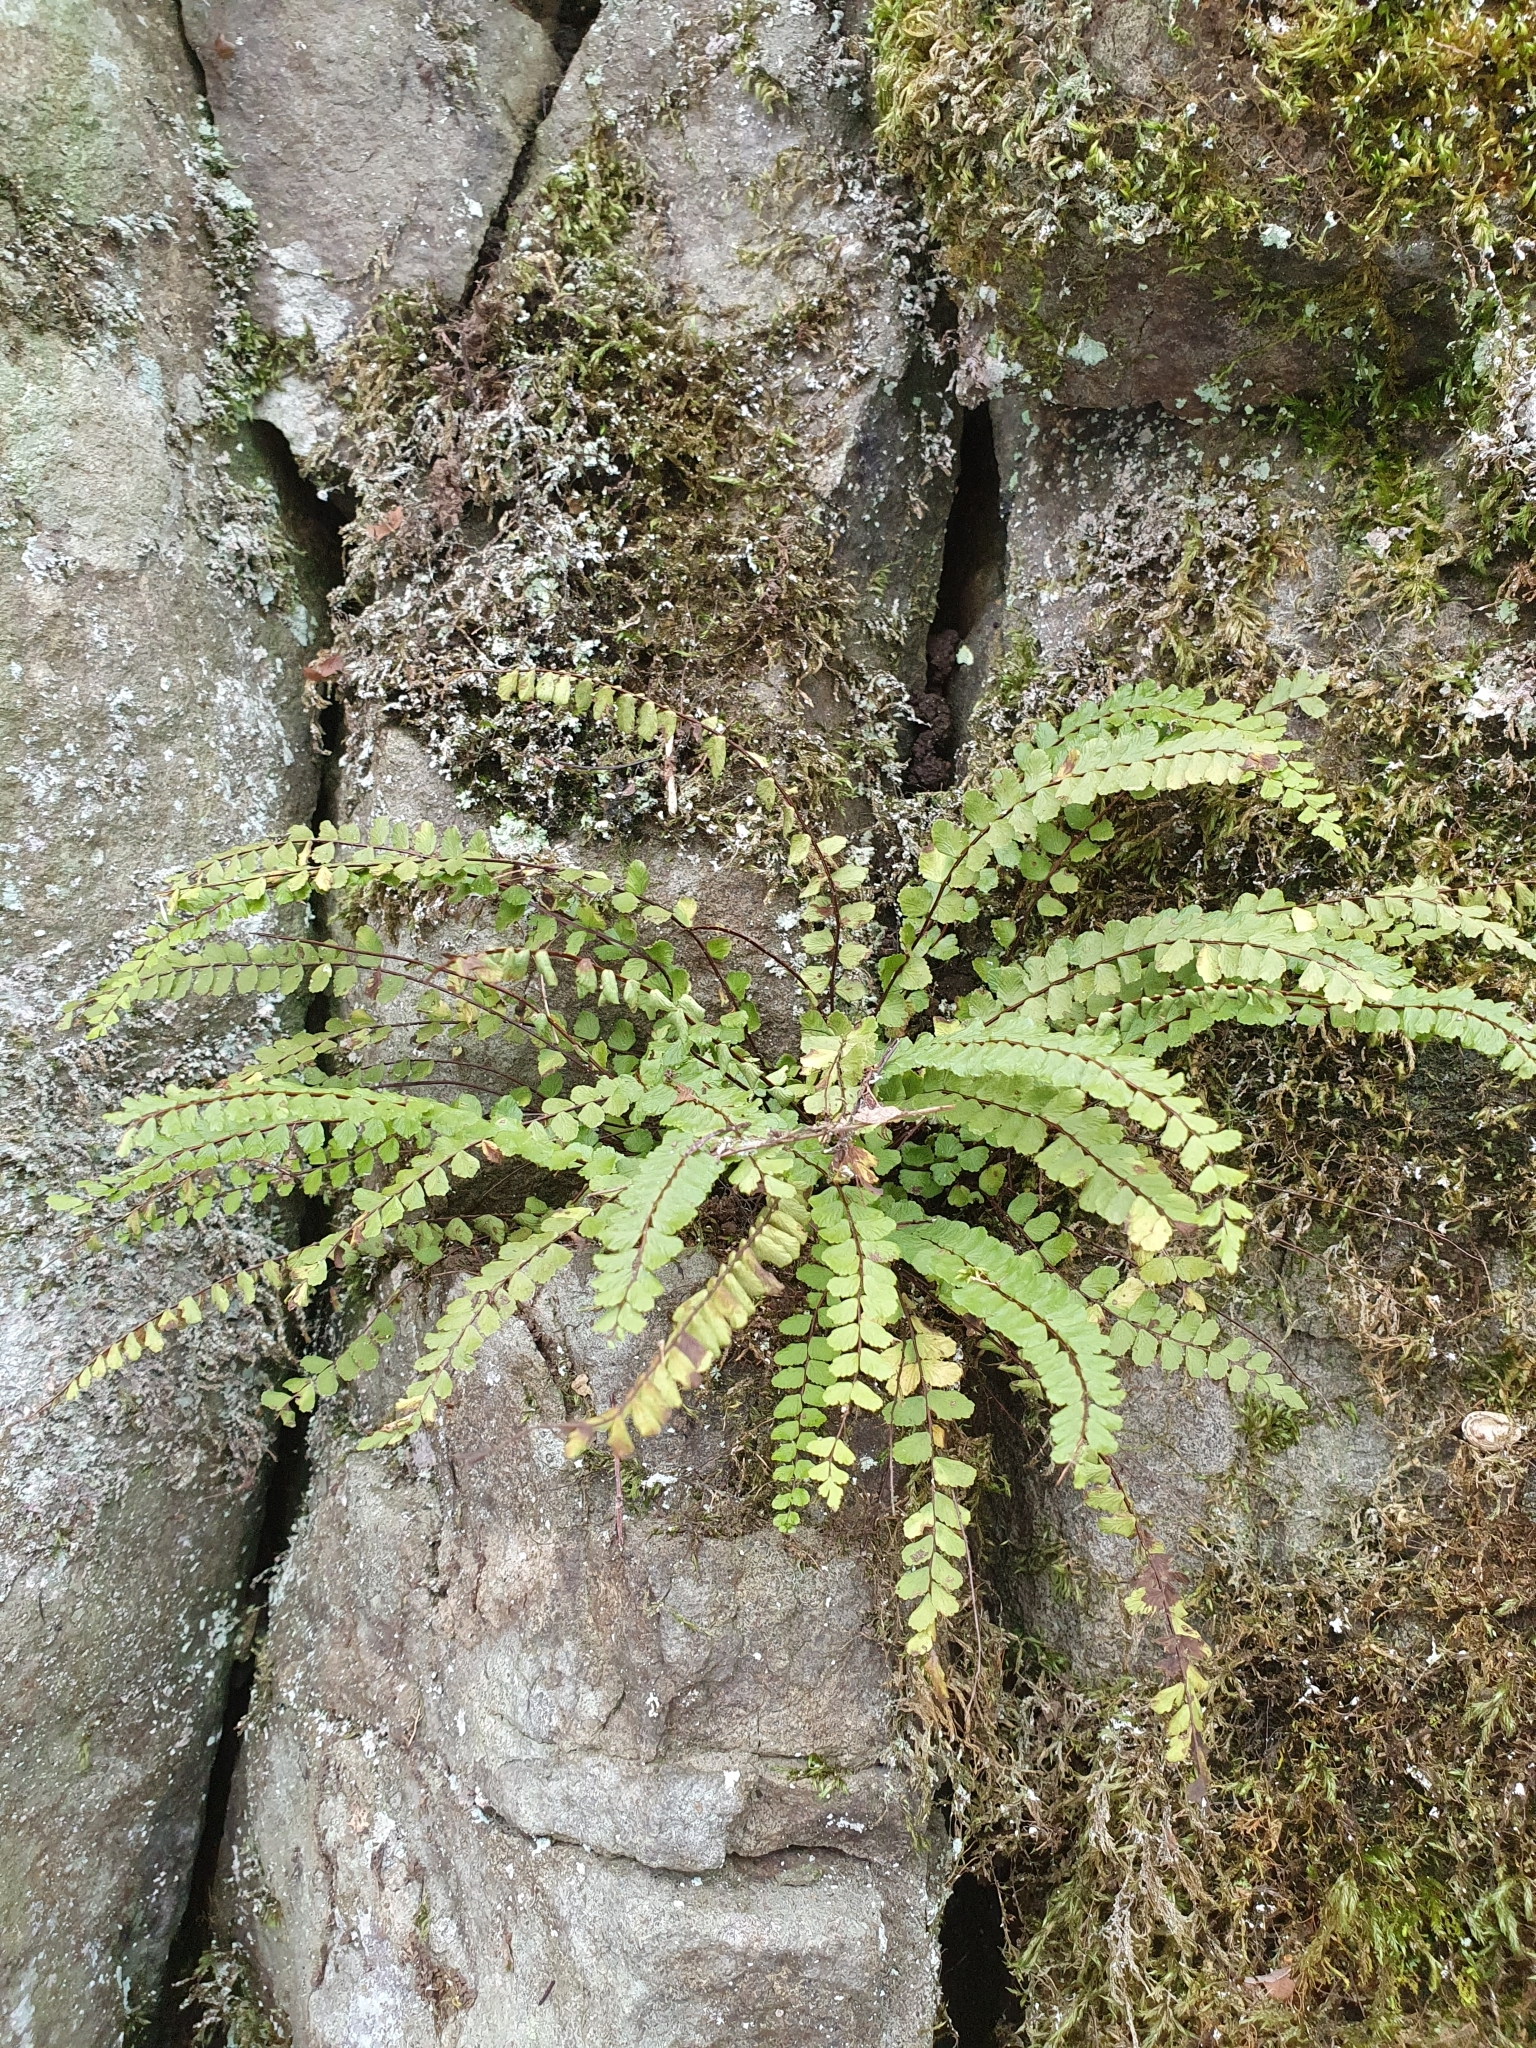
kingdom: Plantae
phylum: Tracheophyta
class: Polypodiopsida
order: Polypodiales
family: Aspleniaceae
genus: Asplenium
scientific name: Asplenium trichomanes
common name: Maidenhair spleenwort
